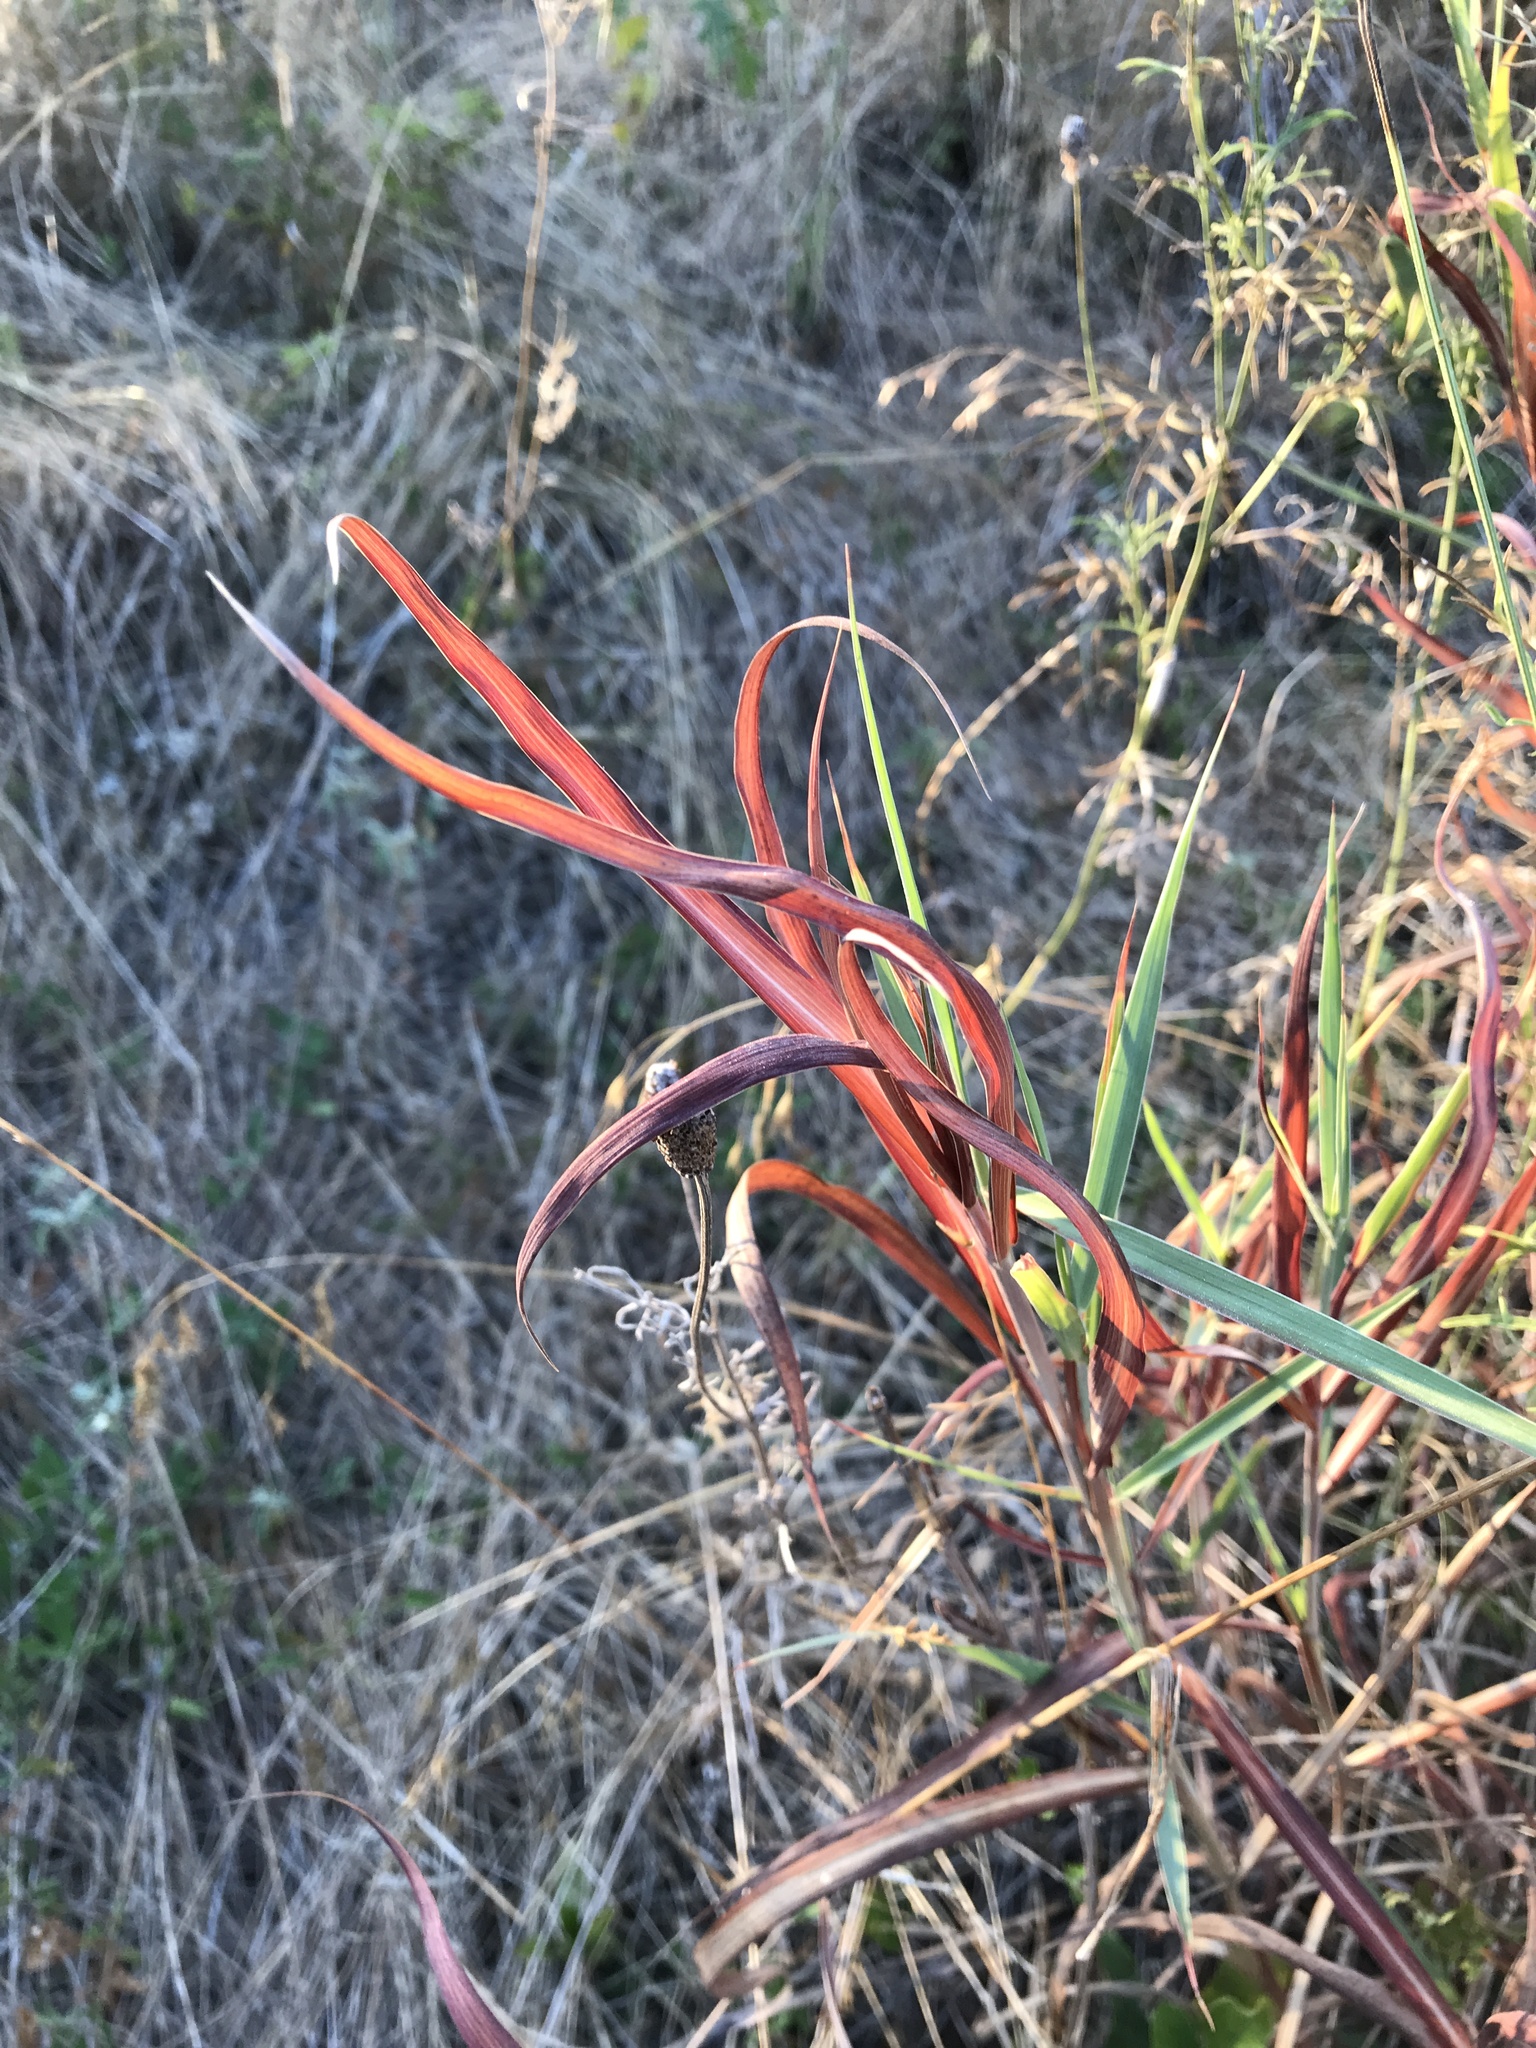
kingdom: Plantae
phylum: Tracheophyta
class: Liliopsida
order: Poales
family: Poaceae
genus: Bothriochloa
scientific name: Bothriochloa torreyana
